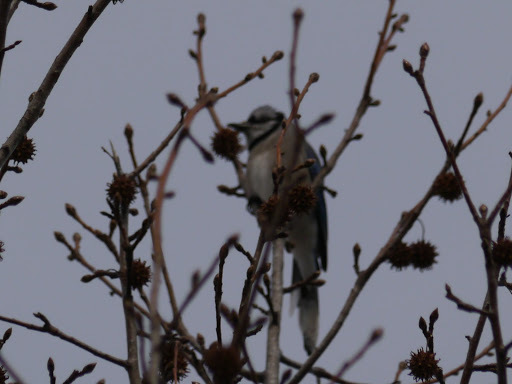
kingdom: Animalia
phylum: Chordata
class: Aves
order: Passeriformes
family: Corvidae
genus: Cyanocitta
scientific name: Cyanocitta cristata
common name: Blue jay
